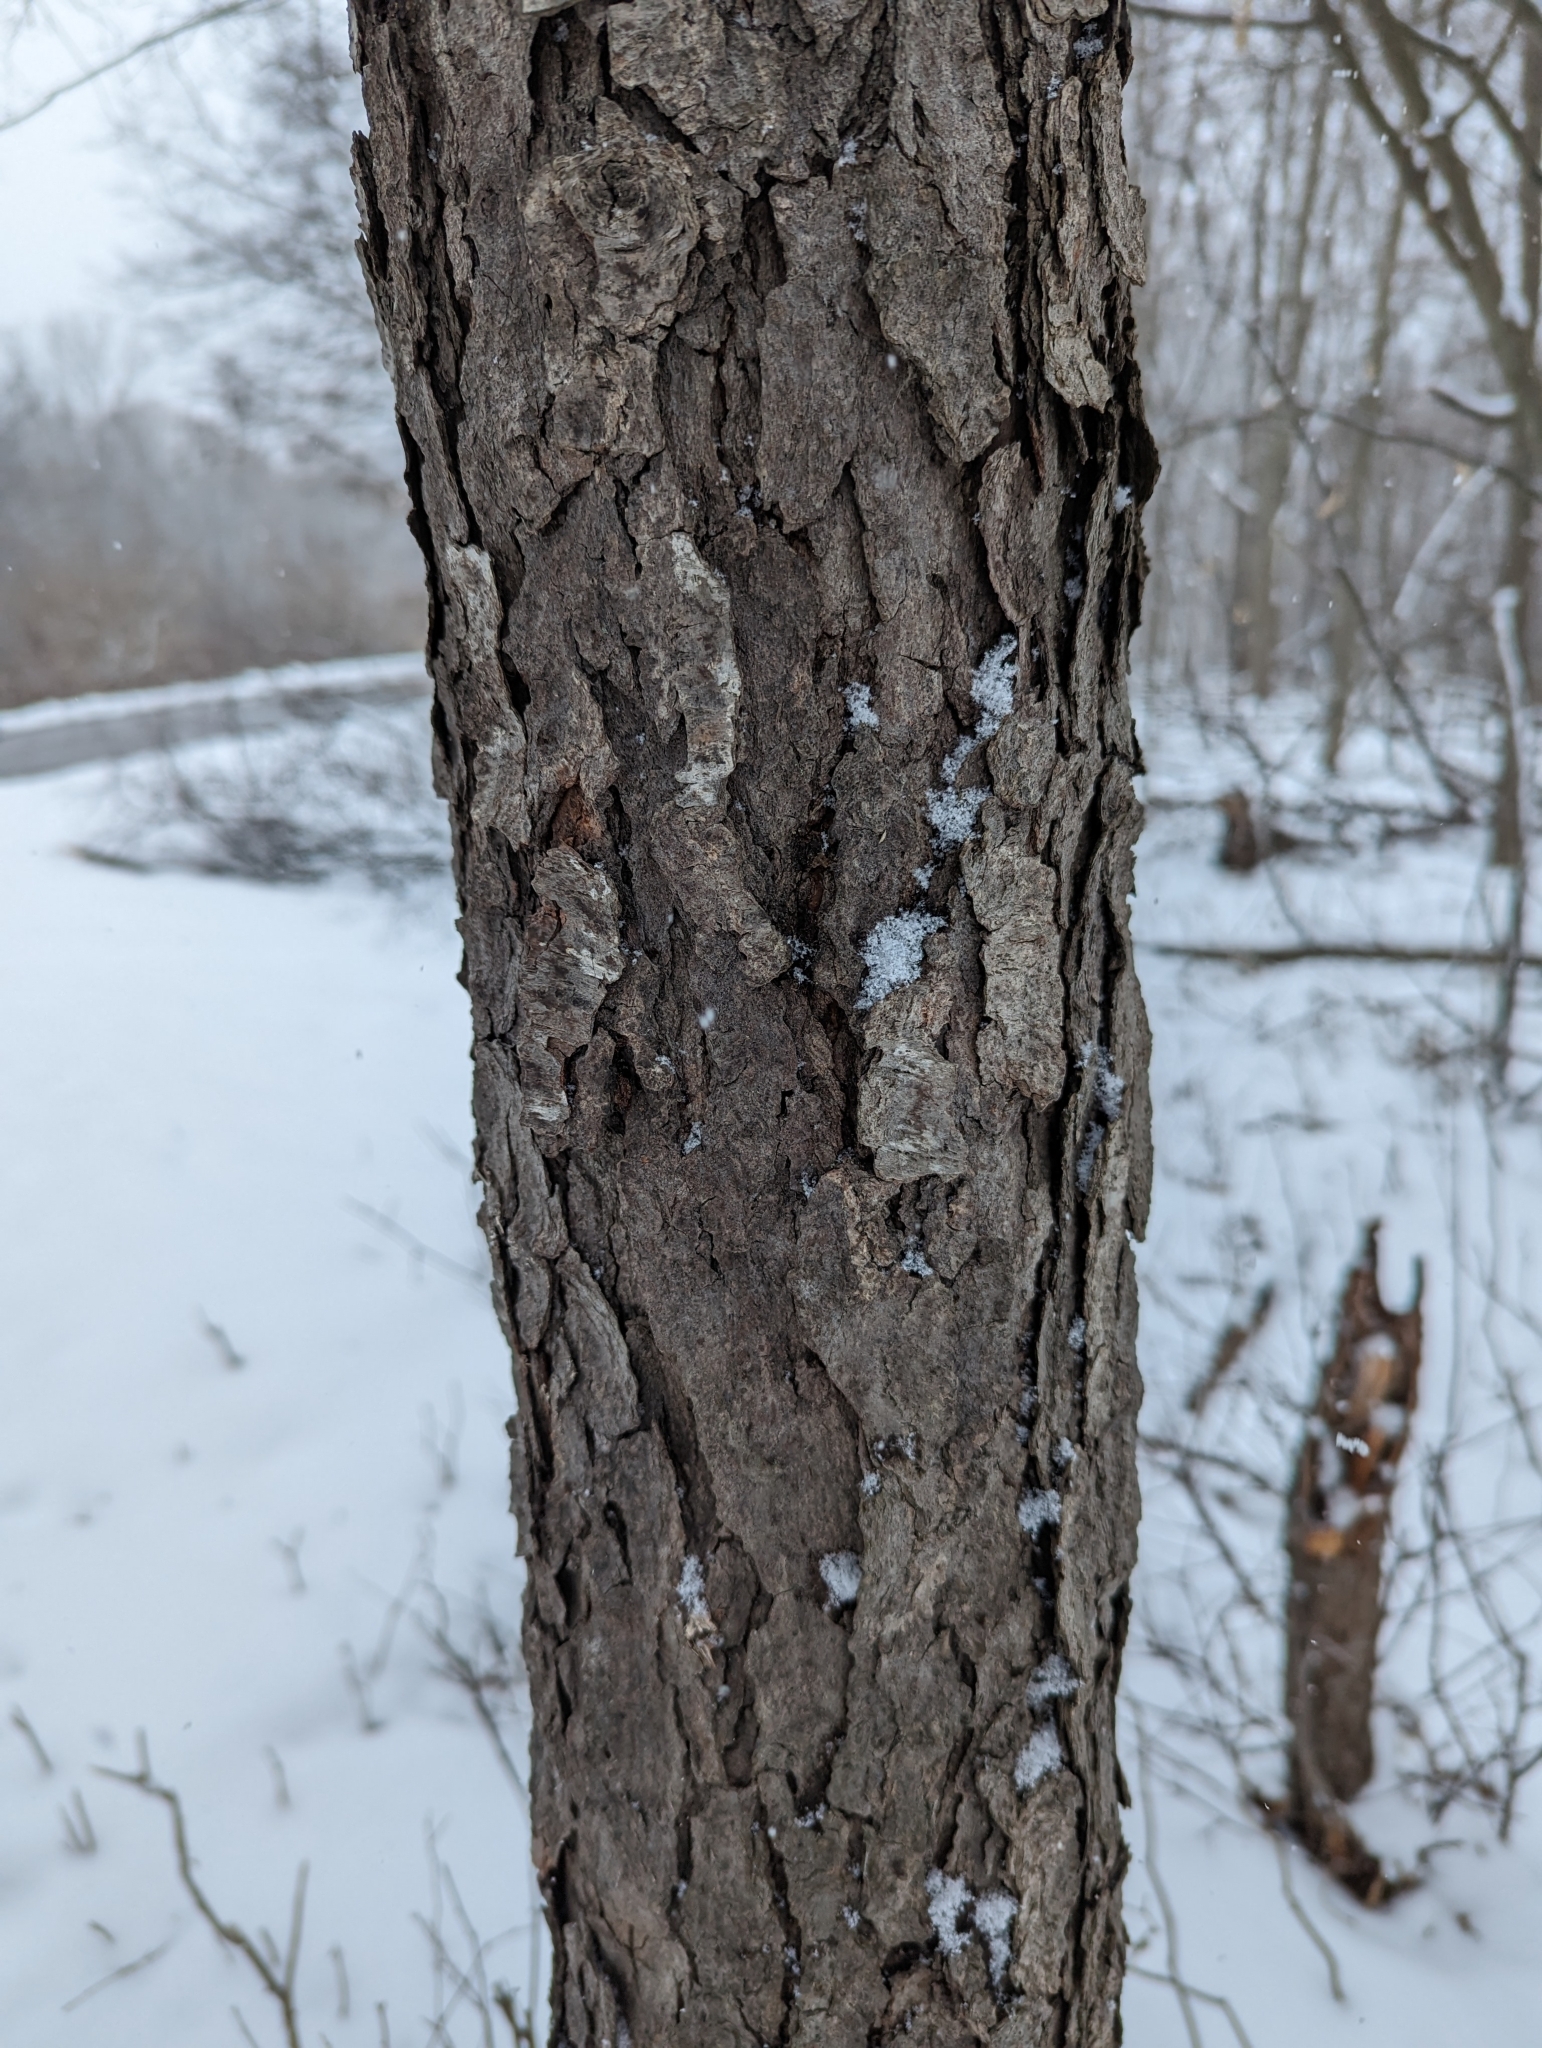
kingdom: Plantae
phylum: Tracheophyta
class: Magnoliopsida
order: Rosales
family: Rosaceae
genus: Prunus
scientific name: Prunus serotina
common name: Black cherry
